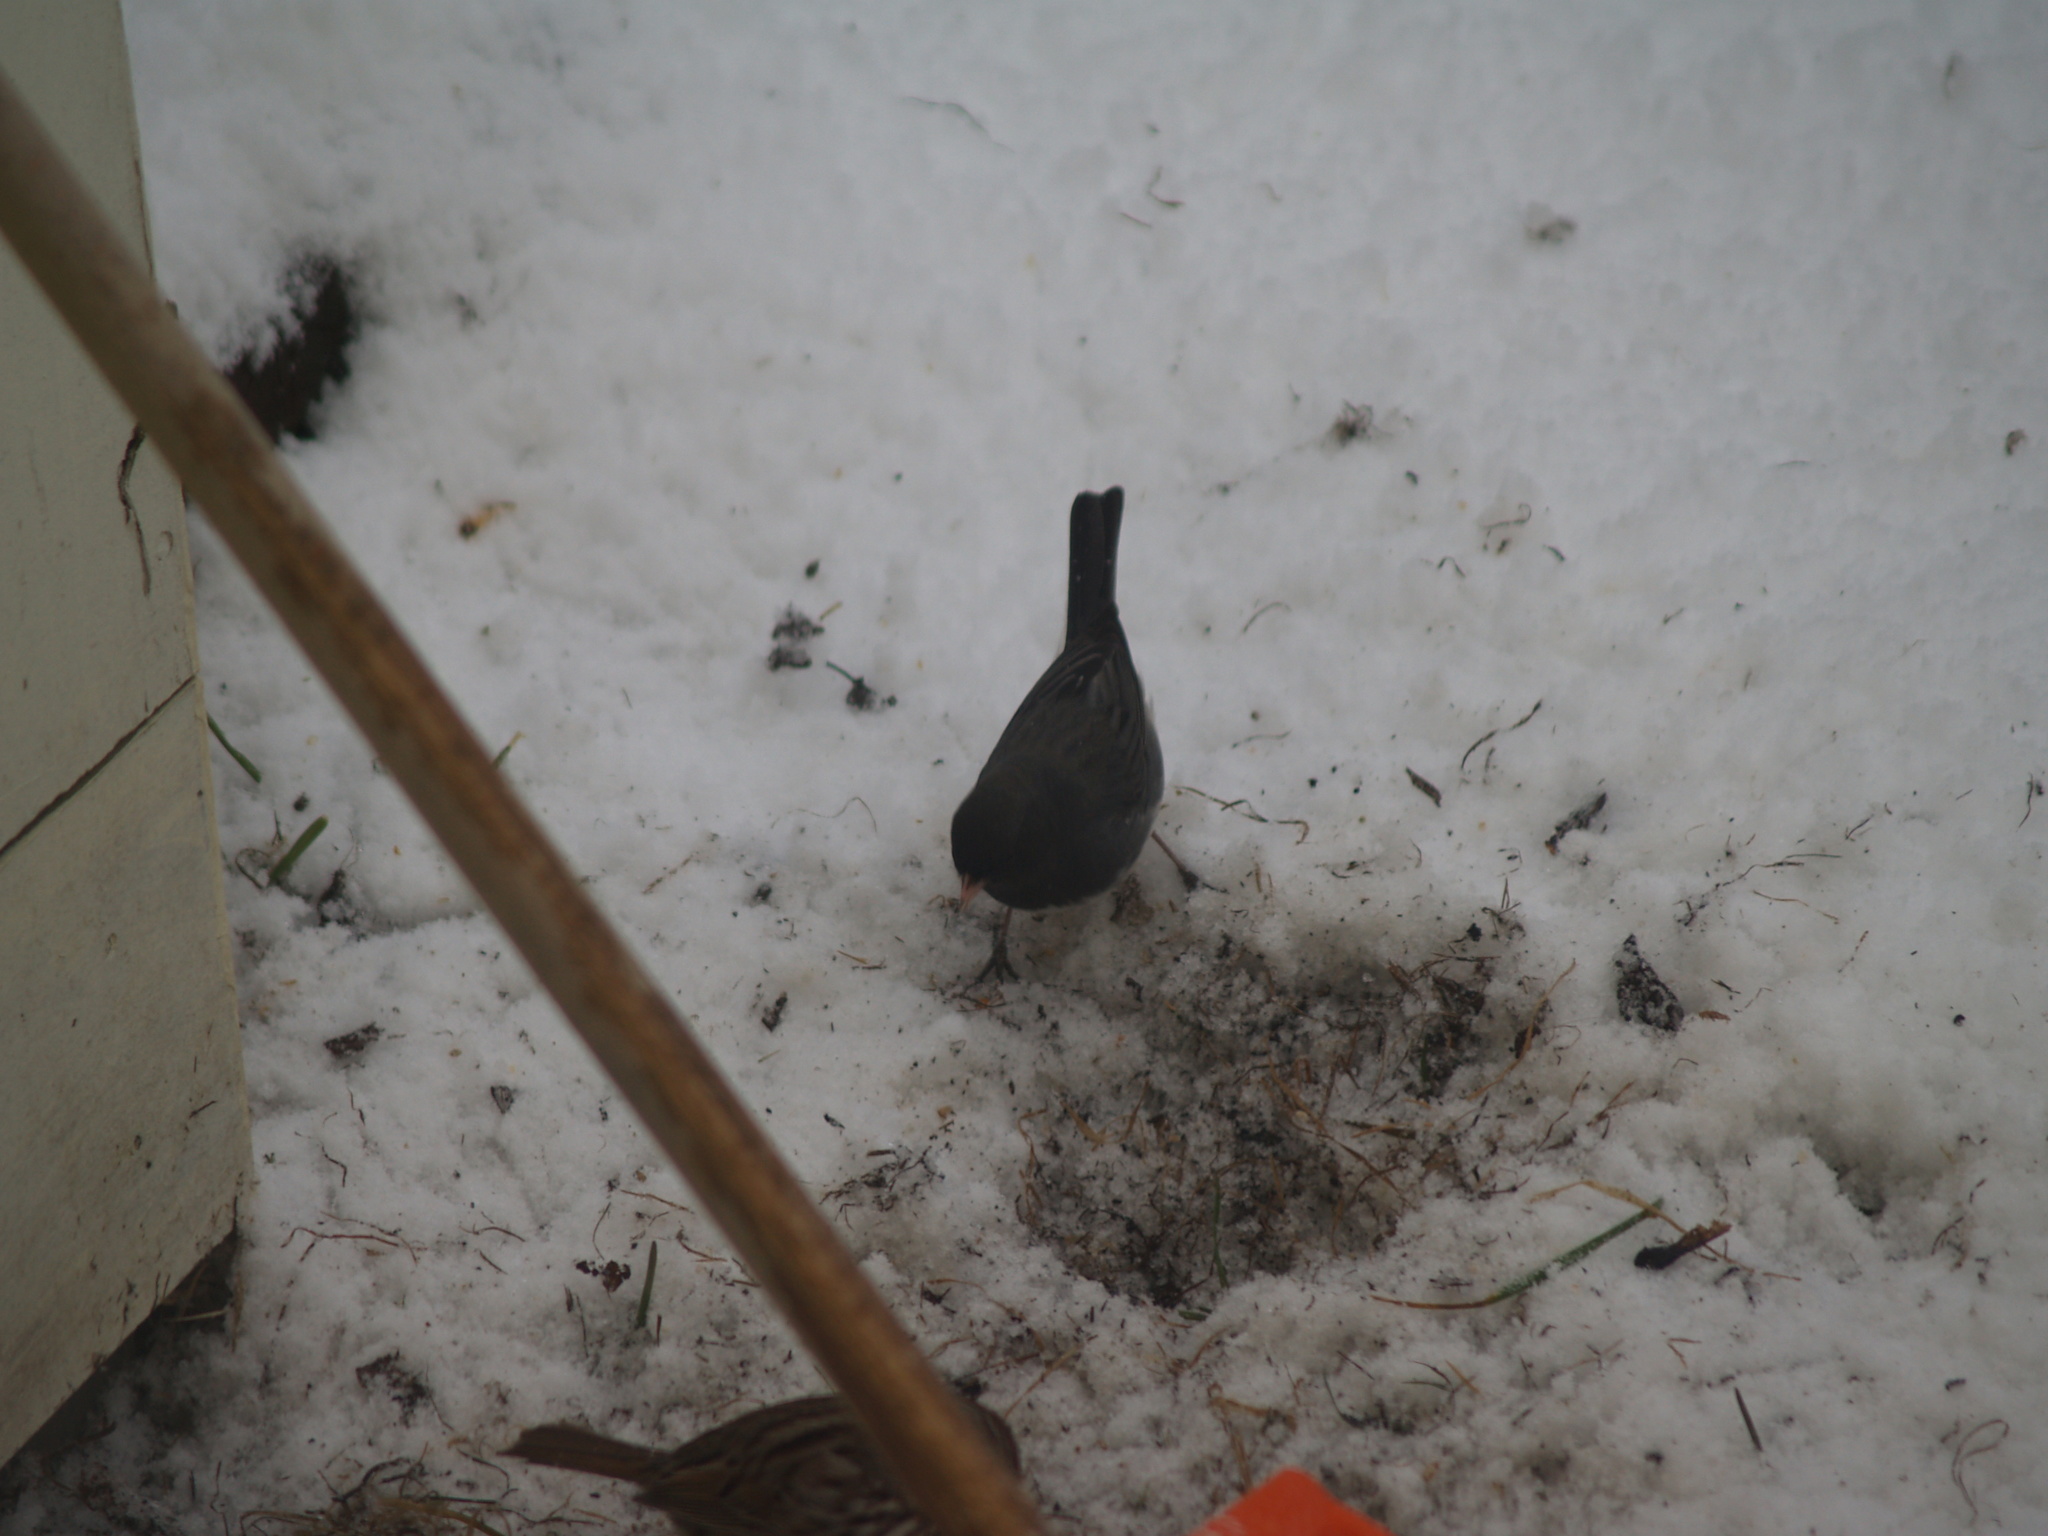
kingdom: Animalia
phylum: Chordata
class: Aves
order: Passeriformes
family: Passerellidae
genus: Junco
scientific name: Junco hyemalis
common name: Dark-eyed junco
